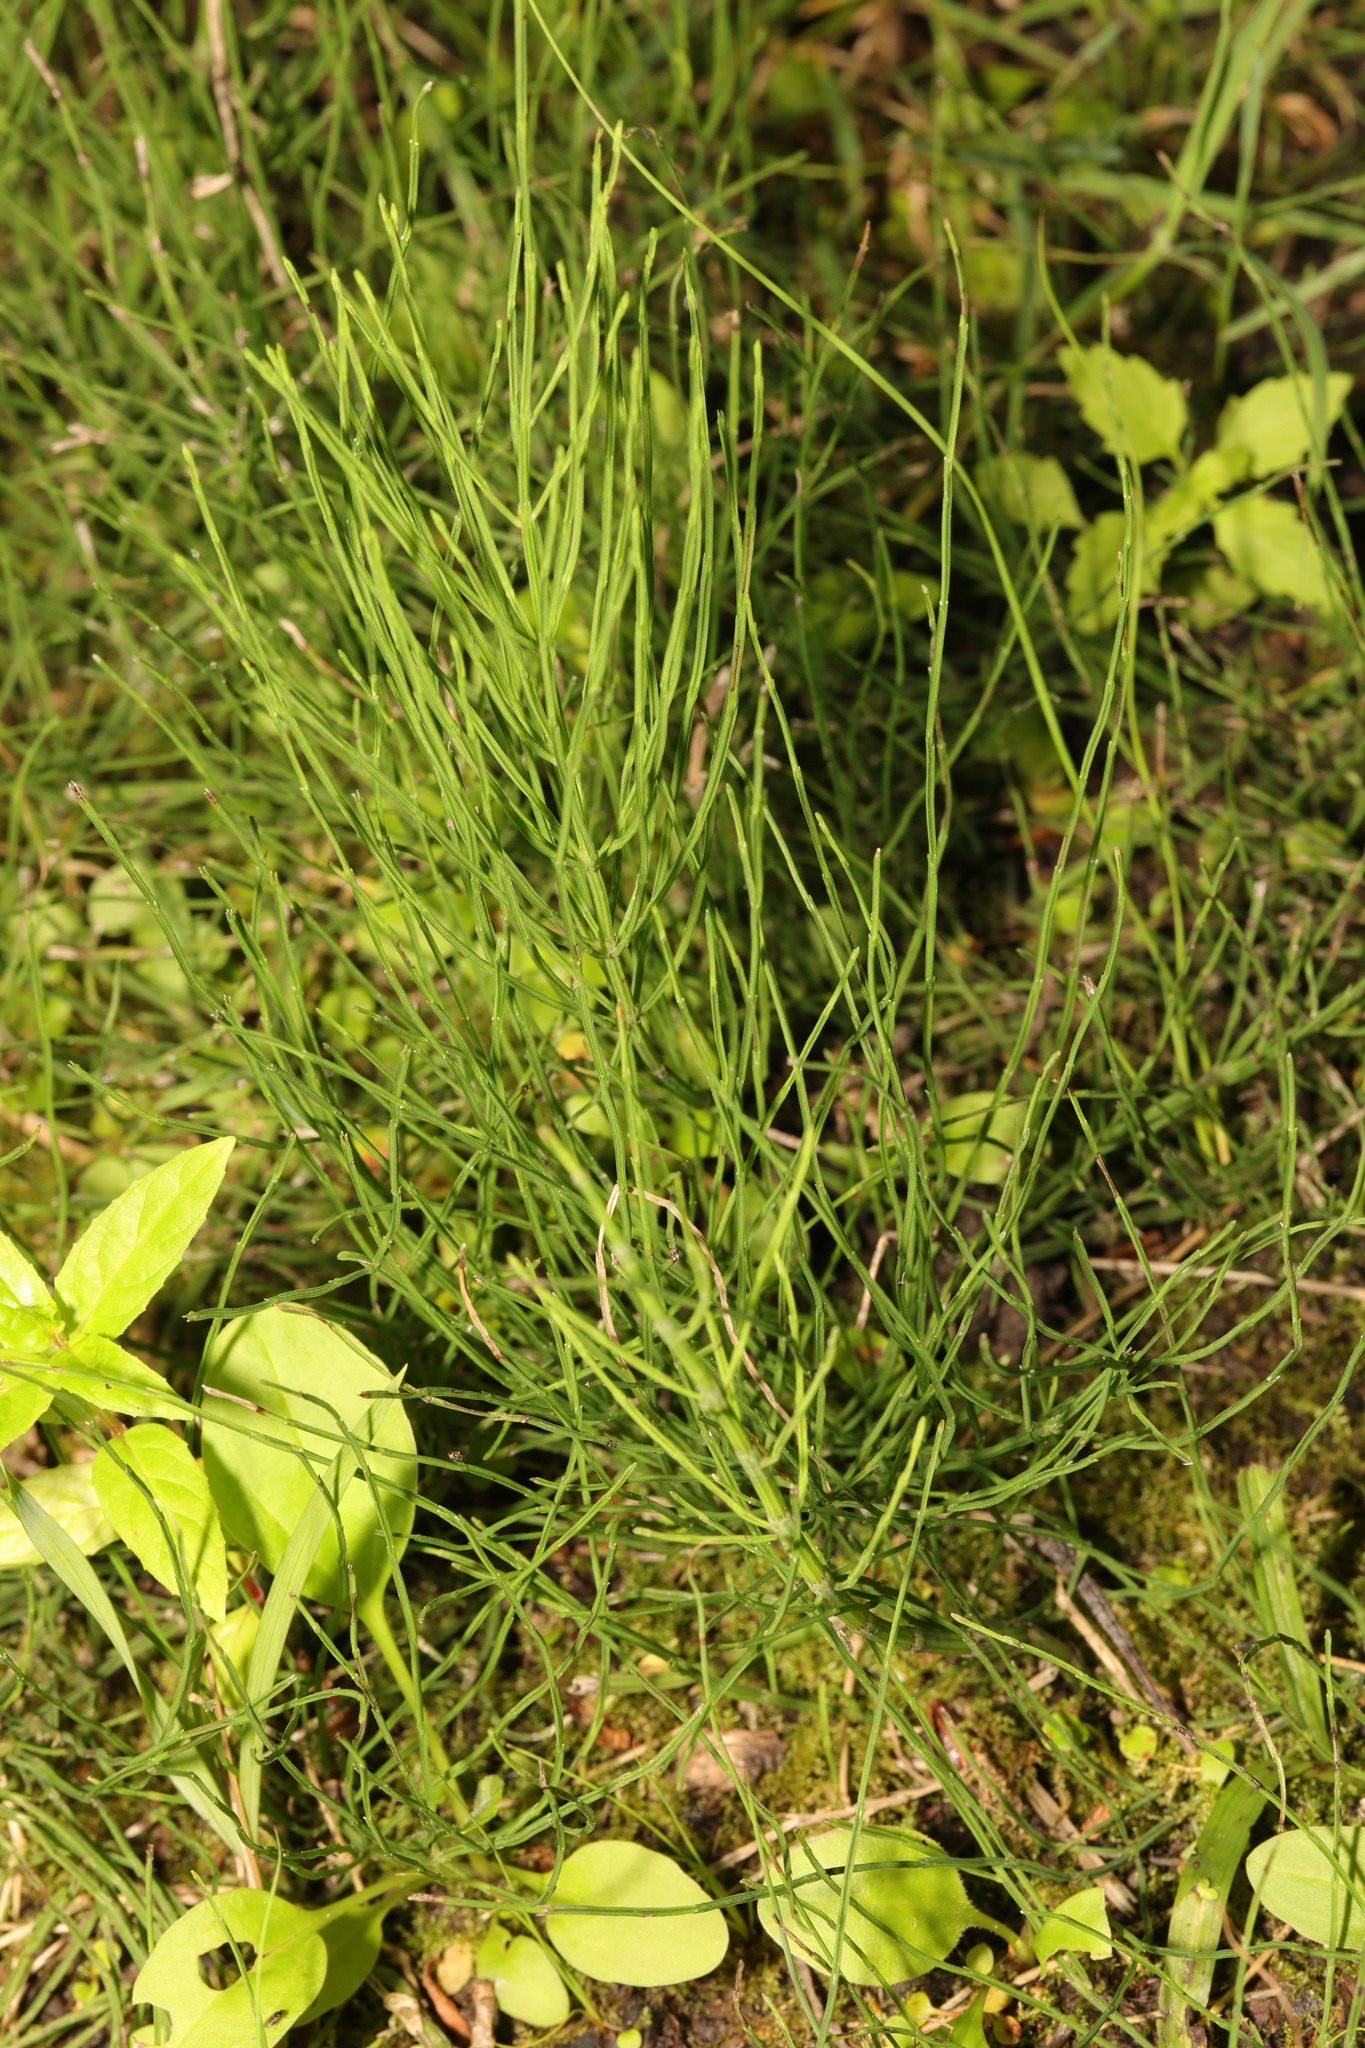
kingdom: Plantae
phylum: Tracheophyta
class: Polypodiopsida
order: Equisetales
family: Equisetaceae
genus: Equisetum
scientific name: Equisetum arvense
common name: Field horsetail
